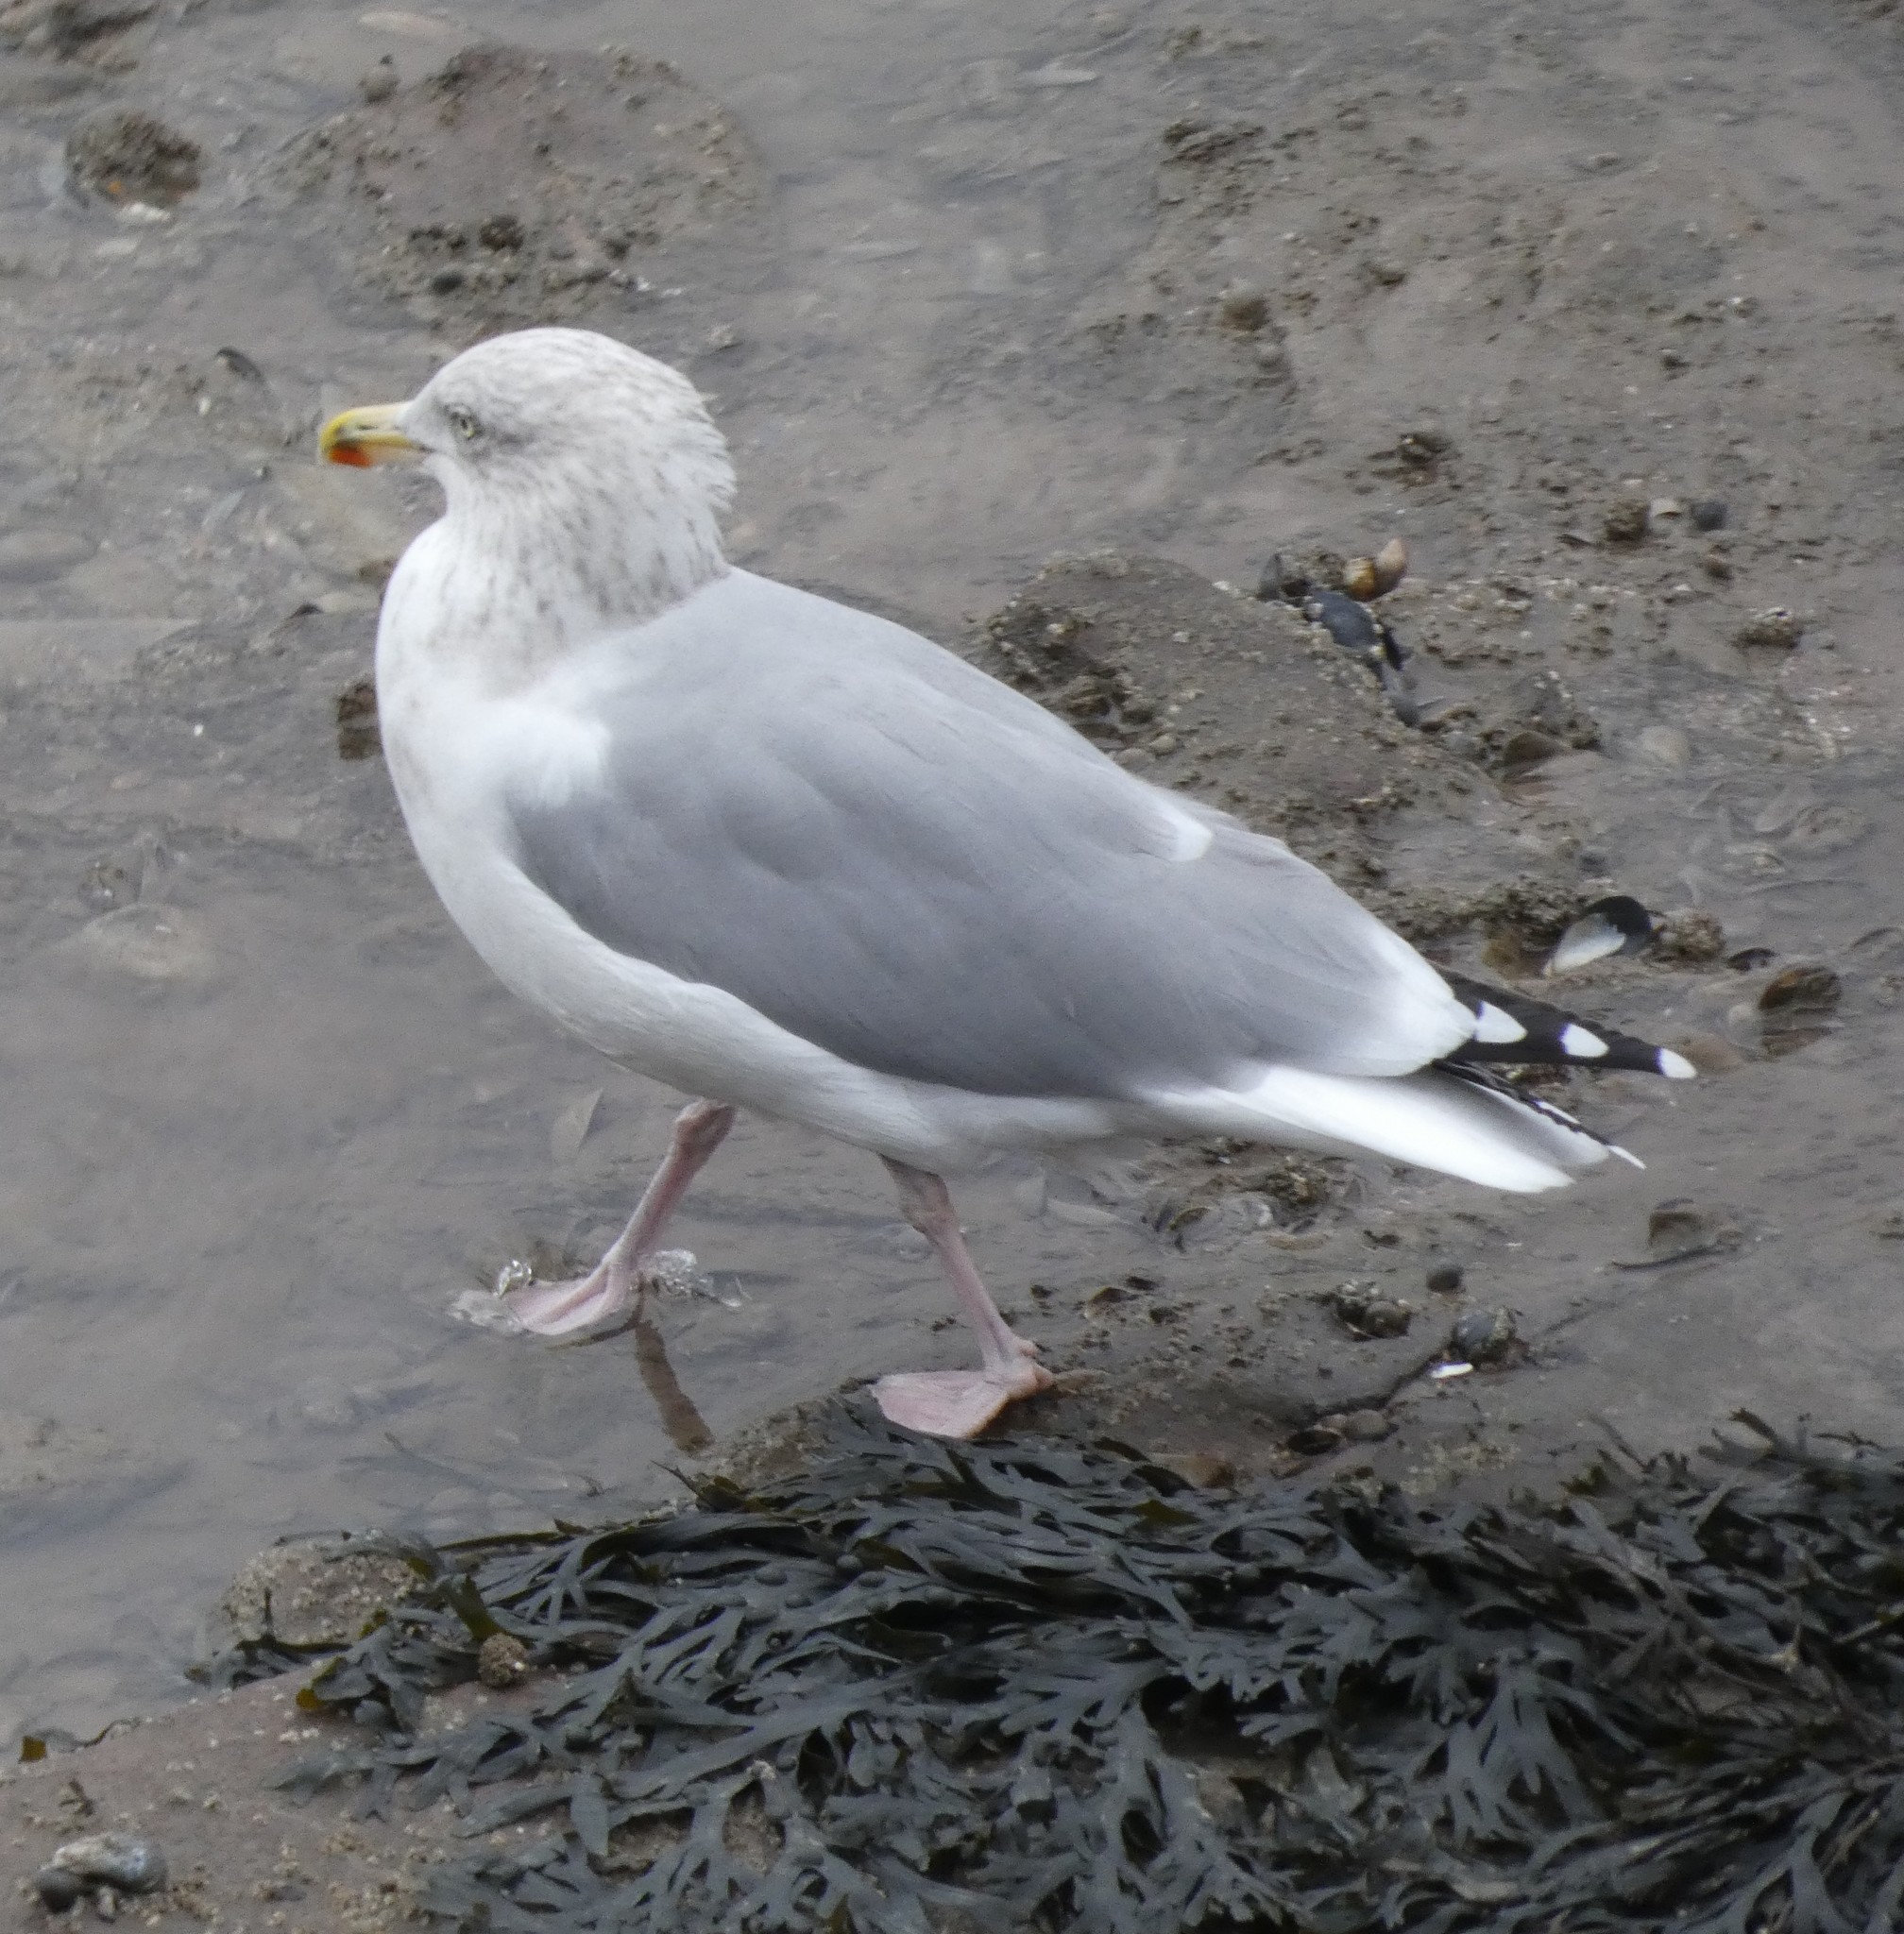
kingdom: Animalia
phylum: Chordata
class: Aves
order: Charadriiformes
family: Laridae
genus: Larus
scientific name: Larus argentatus
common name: Herring gull
